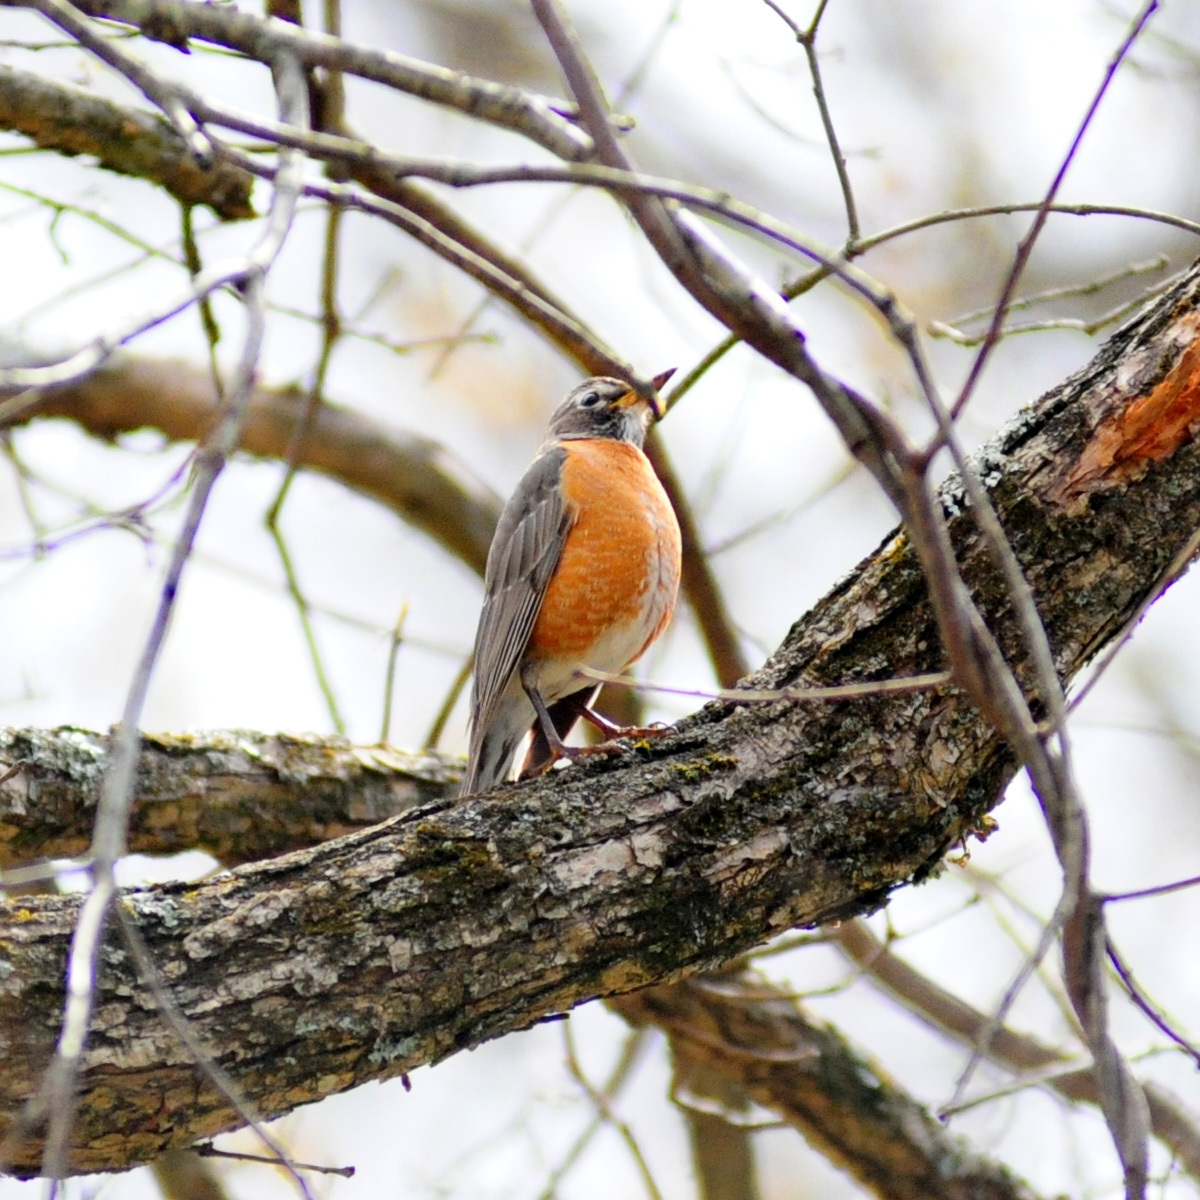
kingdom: Animalia
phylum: Chordata
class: Aves
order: Passeriformes
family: Turdidae
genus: Turdus
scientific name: Turdus migratorius
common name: American robin
